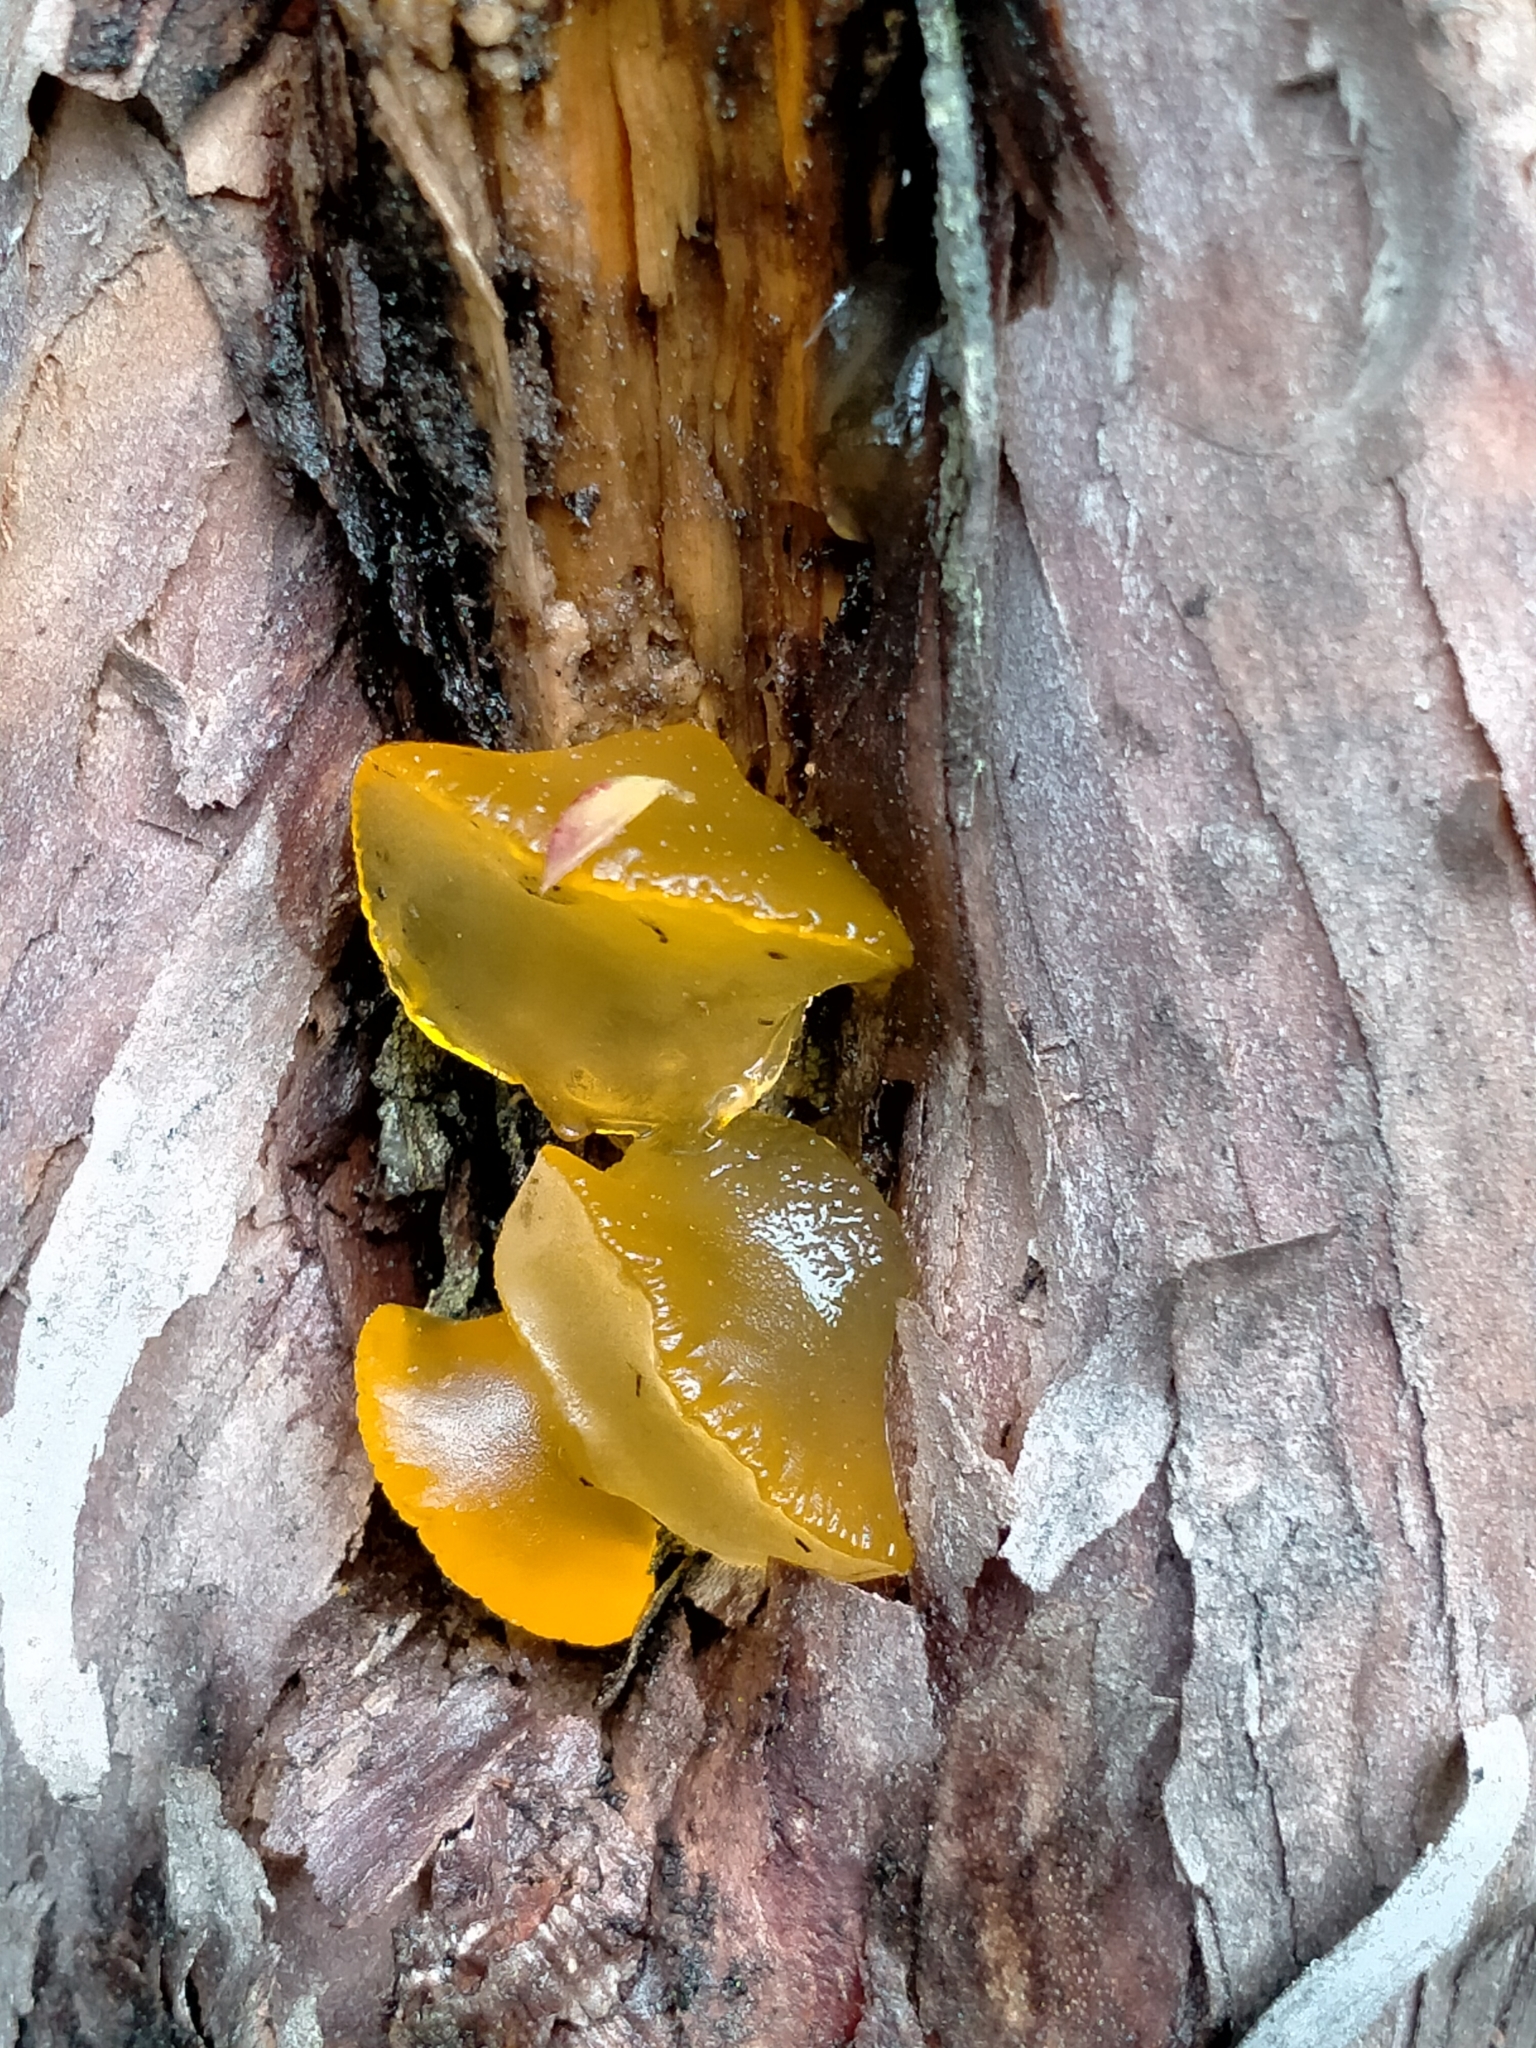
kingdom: Fungi
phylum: Basidiomycota
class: Dacrymycetes
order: Dacrymycetales
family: Dacrymycetaceae
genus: Heterotextus
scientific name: Heterotextus miltinus
